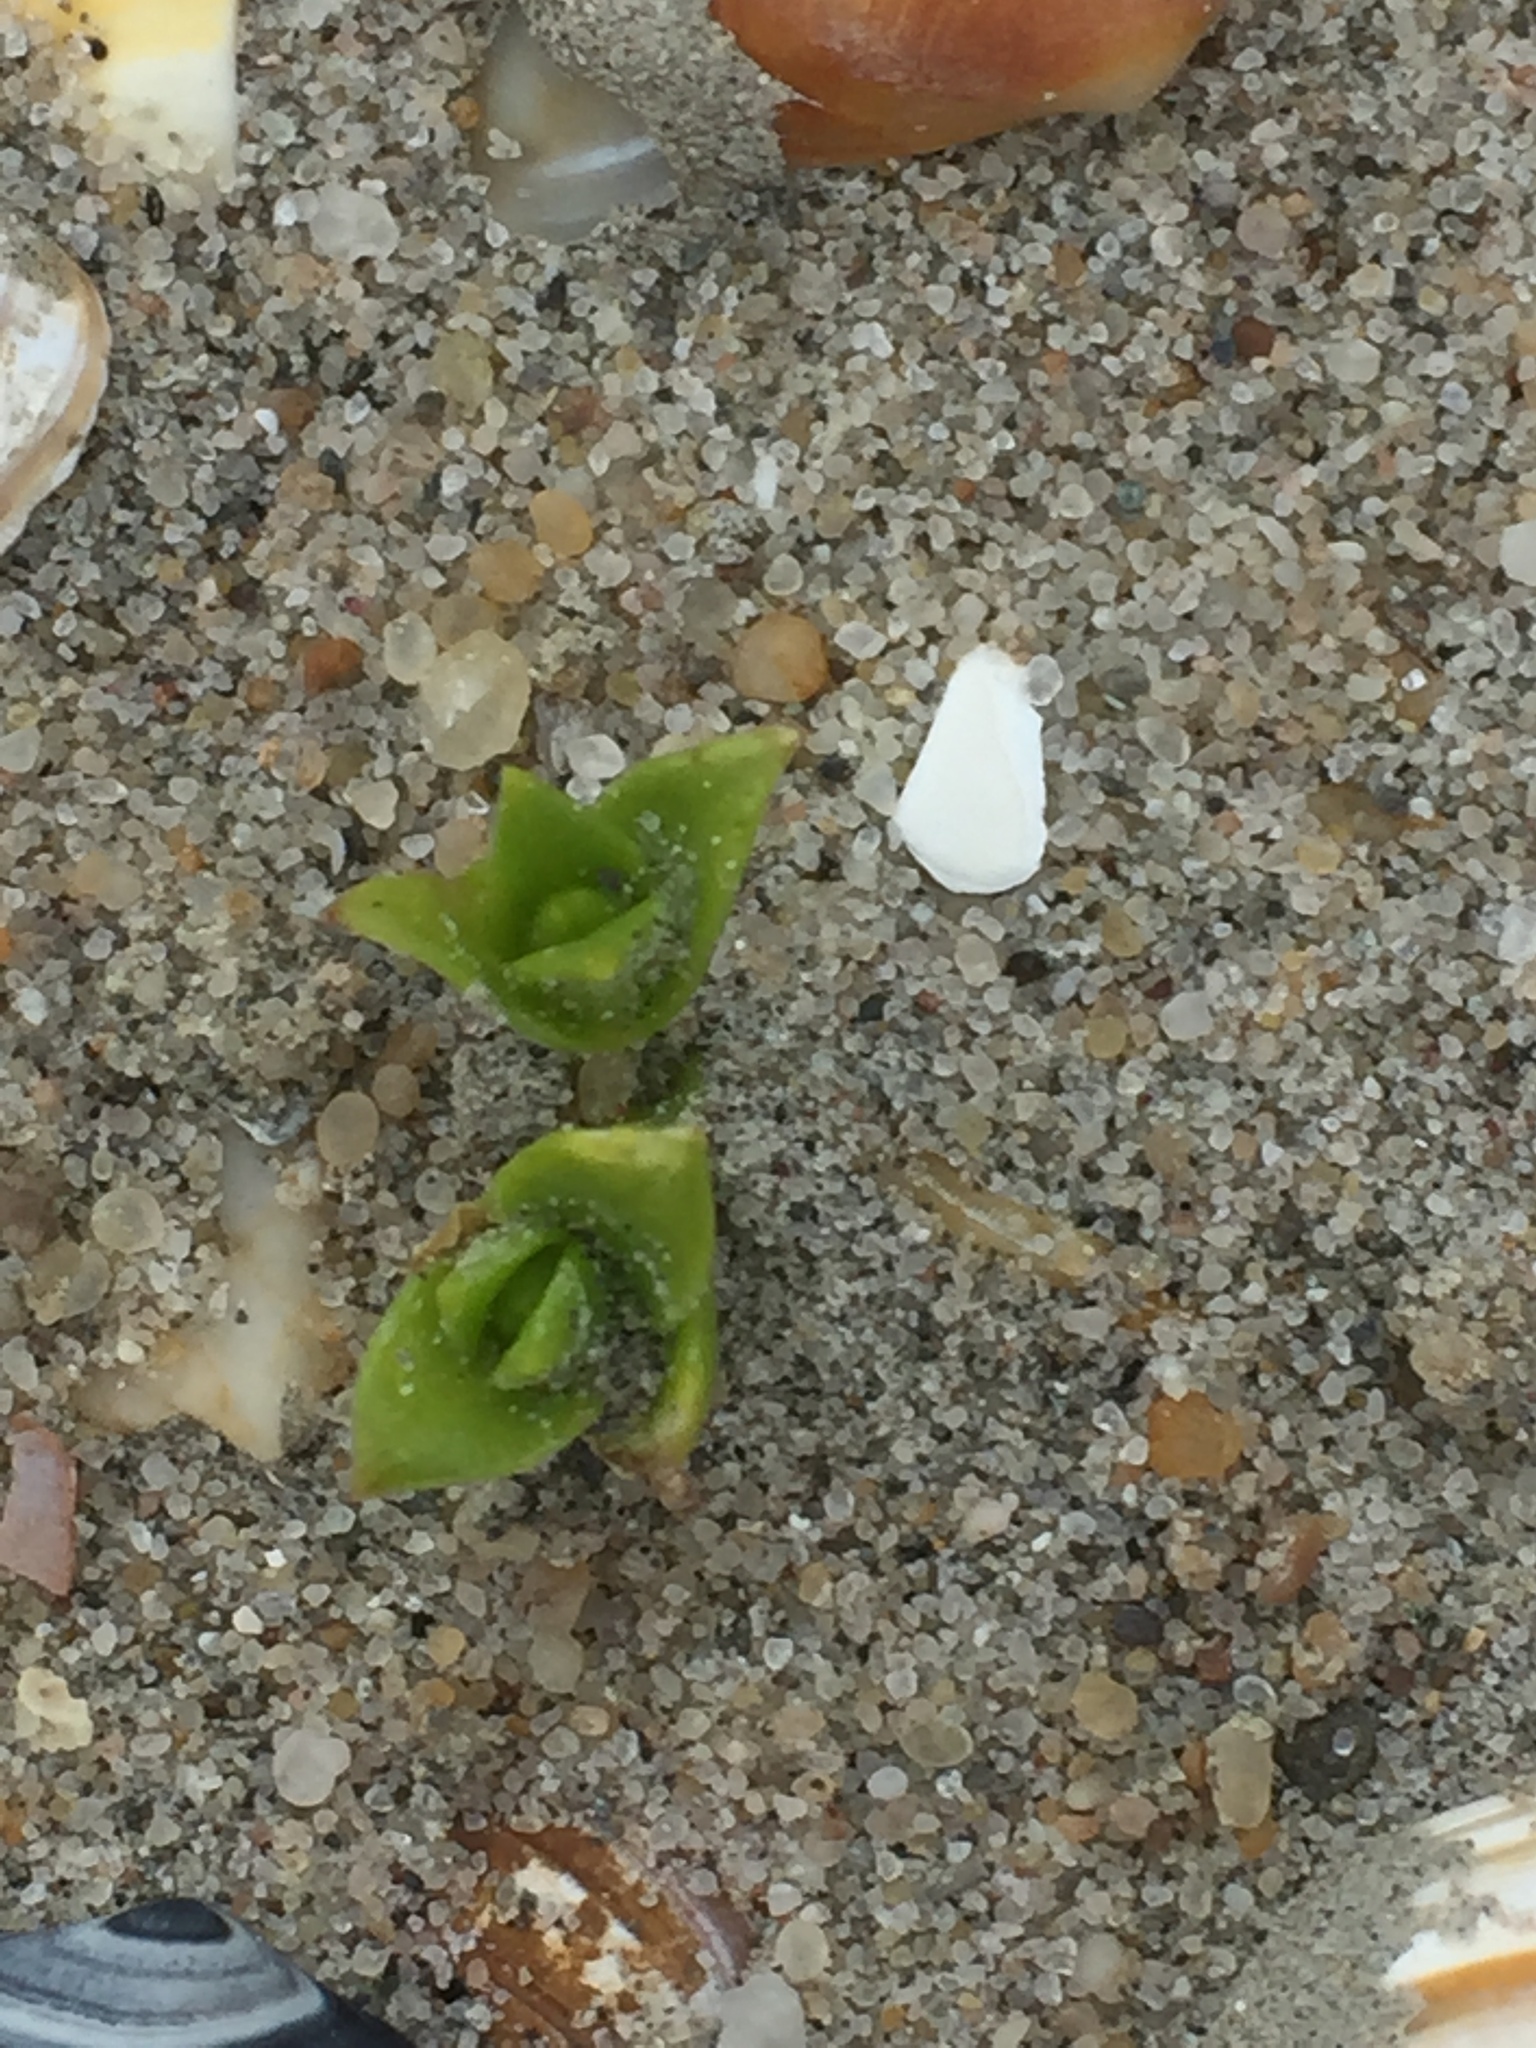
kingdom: Plantae
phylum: Tracheophyta
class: Magnoliopsida
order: Caryophyllales
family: Caryophyllaceae
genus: Honckenya
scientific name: Honckenya peploides
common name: Sea sandwort
